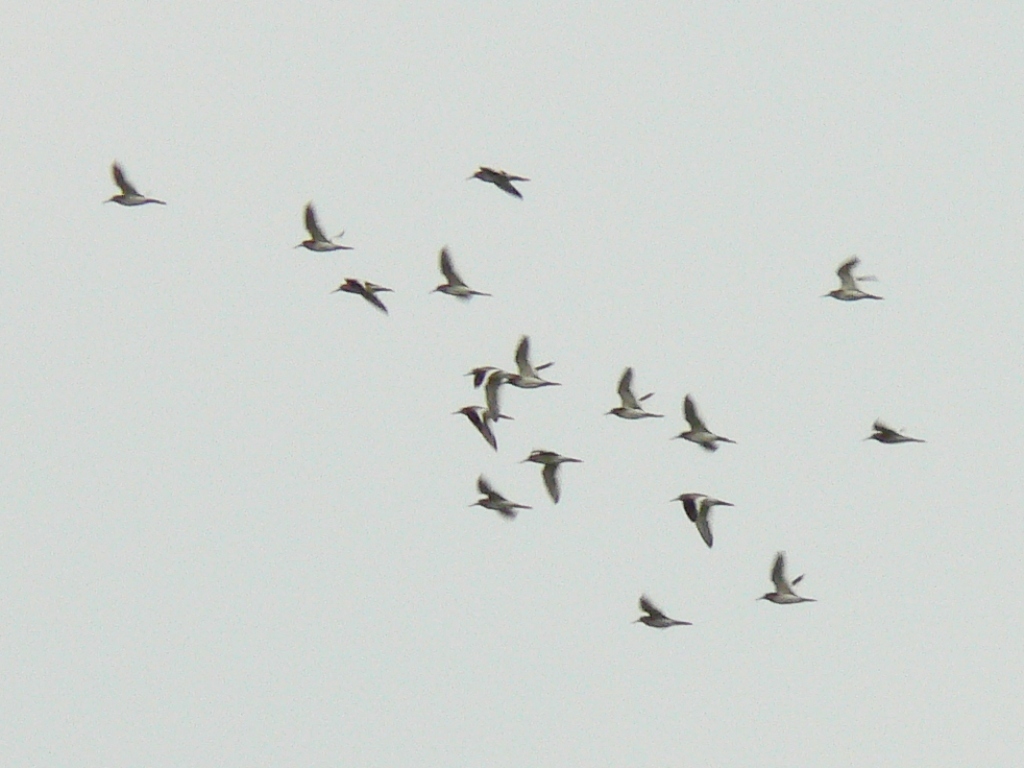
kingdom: Animalia
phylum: Chordata
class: Aves
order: Charadriiformes
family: Scolopacidae
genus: Tringa
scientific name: Tringa totanus
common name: Common redshank
